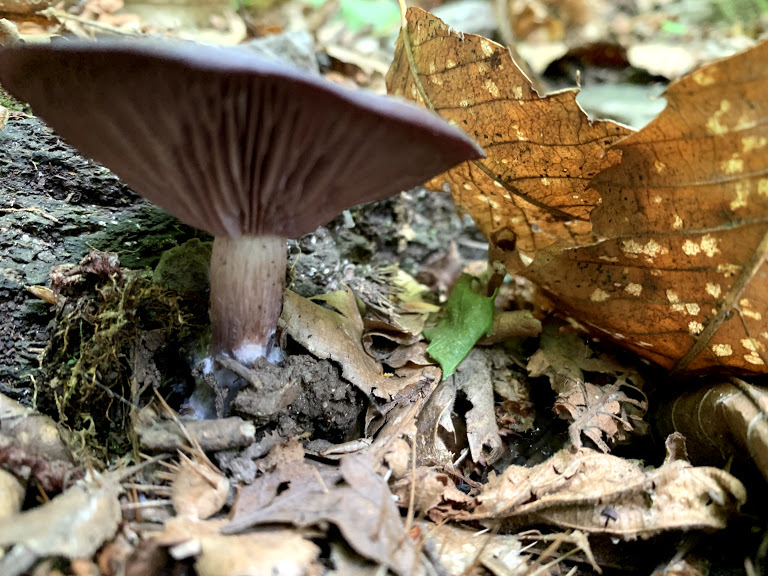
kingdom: Fungi
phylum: Basidiomycota
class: Agaricomycetes
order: Agaricales
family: Tricholomataceae
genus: Collybia
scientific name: Collybia
